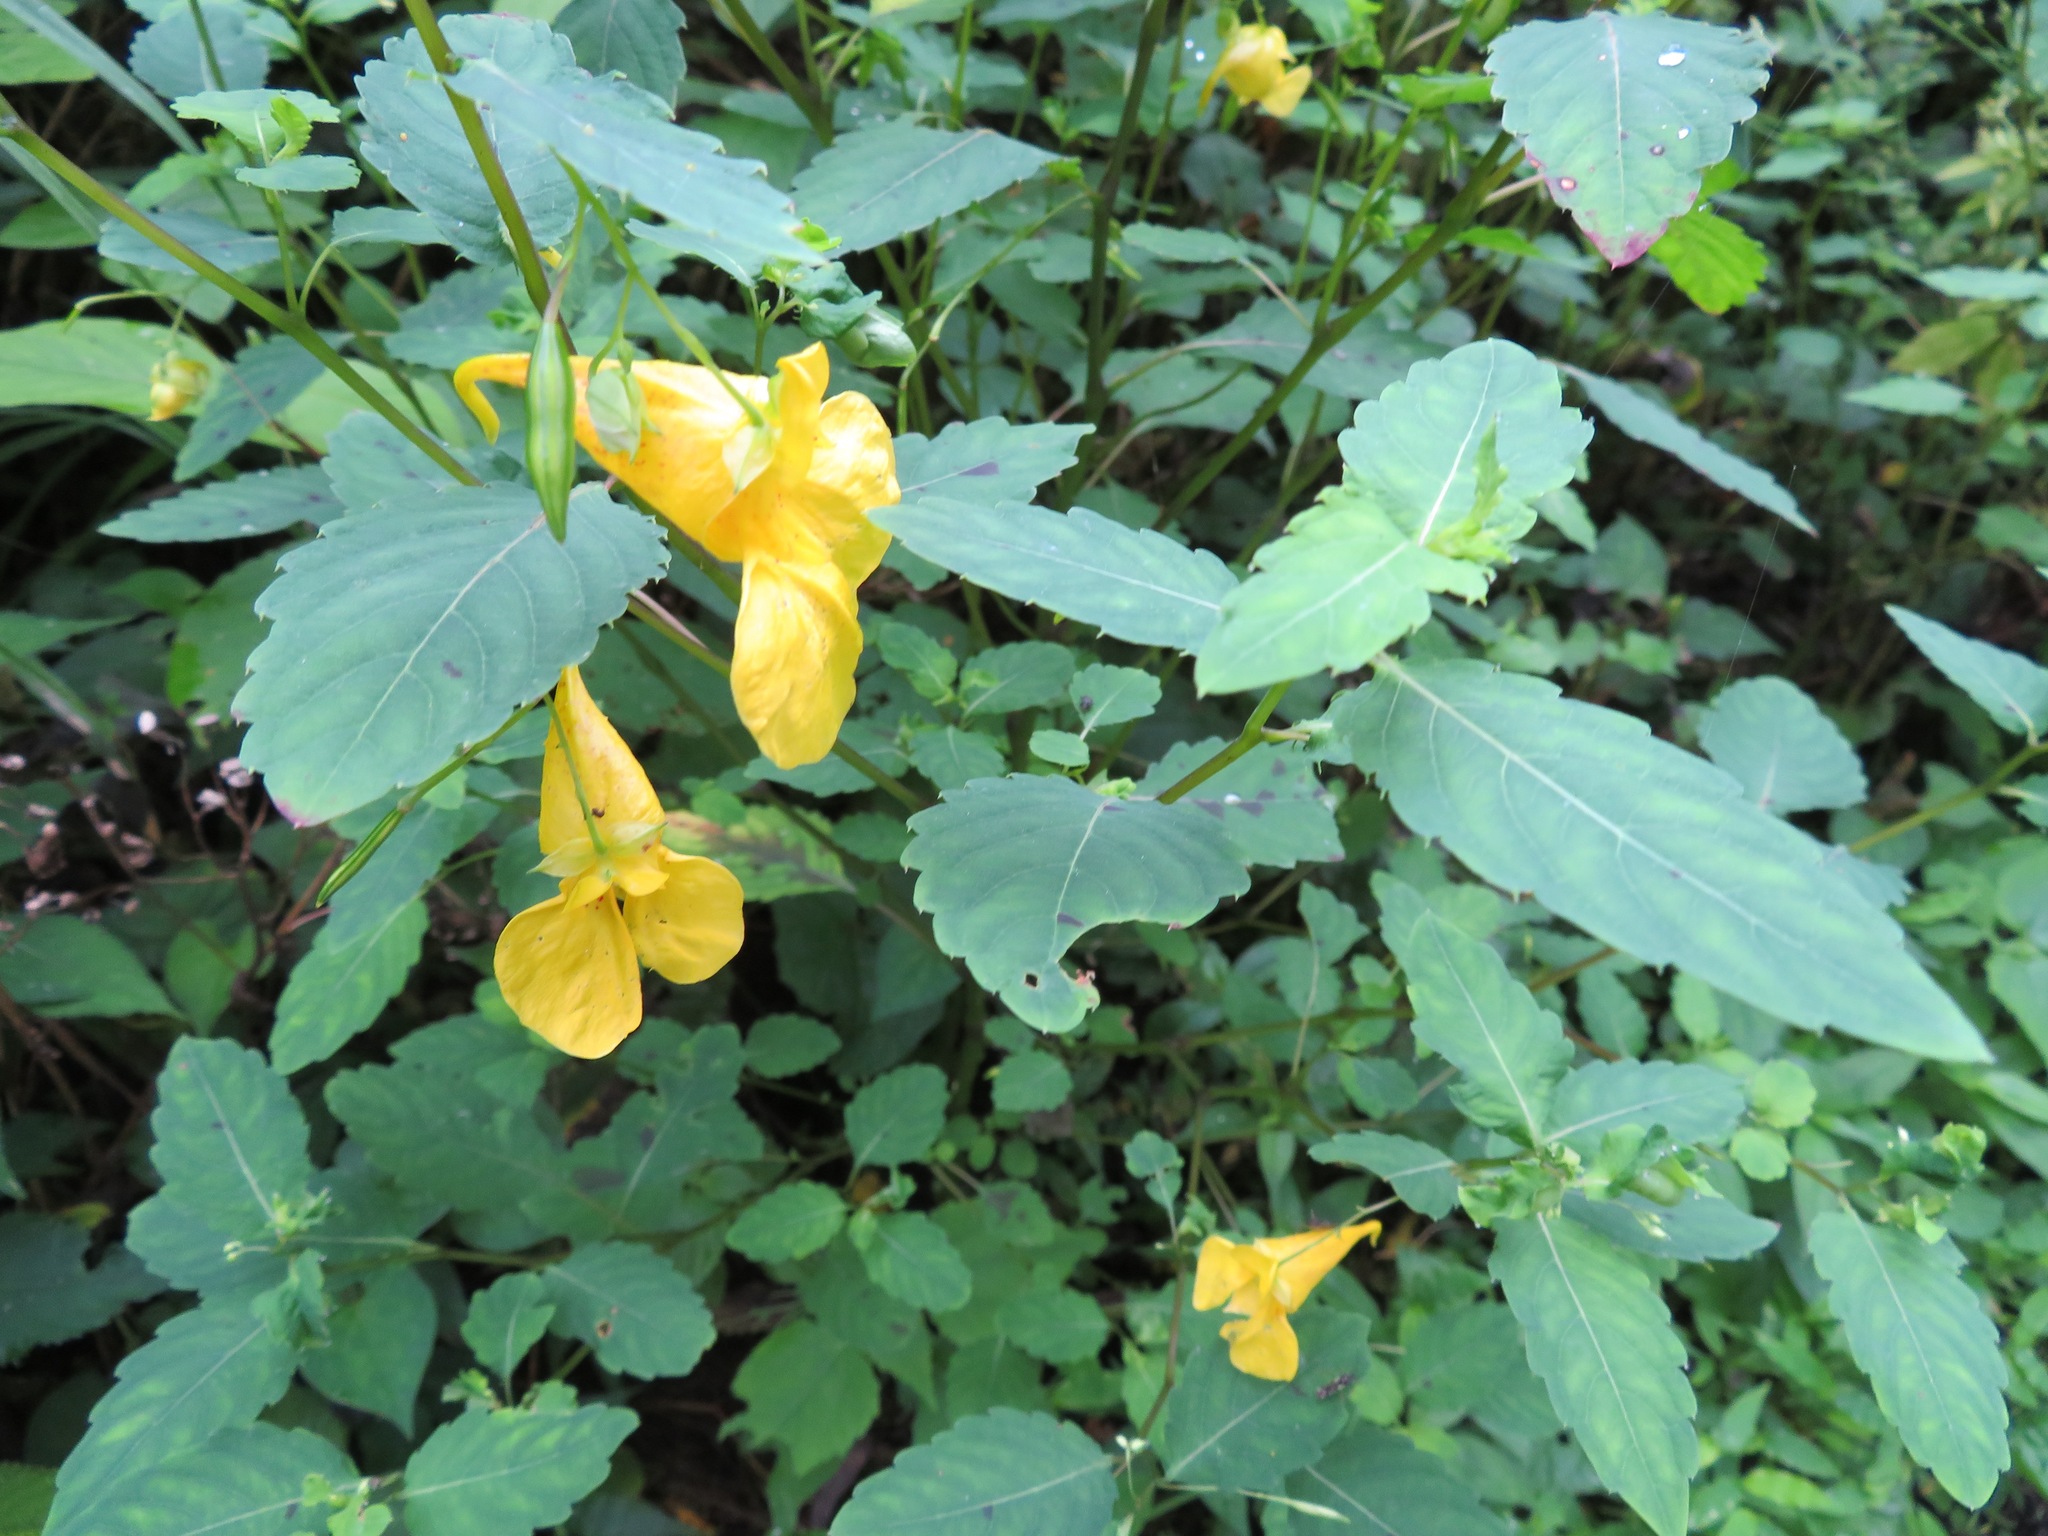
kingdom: Plantae
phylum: Tracheophyta
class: Magnoliopsida
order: Ericales
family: Balsaminaceae
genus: Impatiens
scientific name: Impatiens noli-tangere
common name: Touch-me-not balsam
